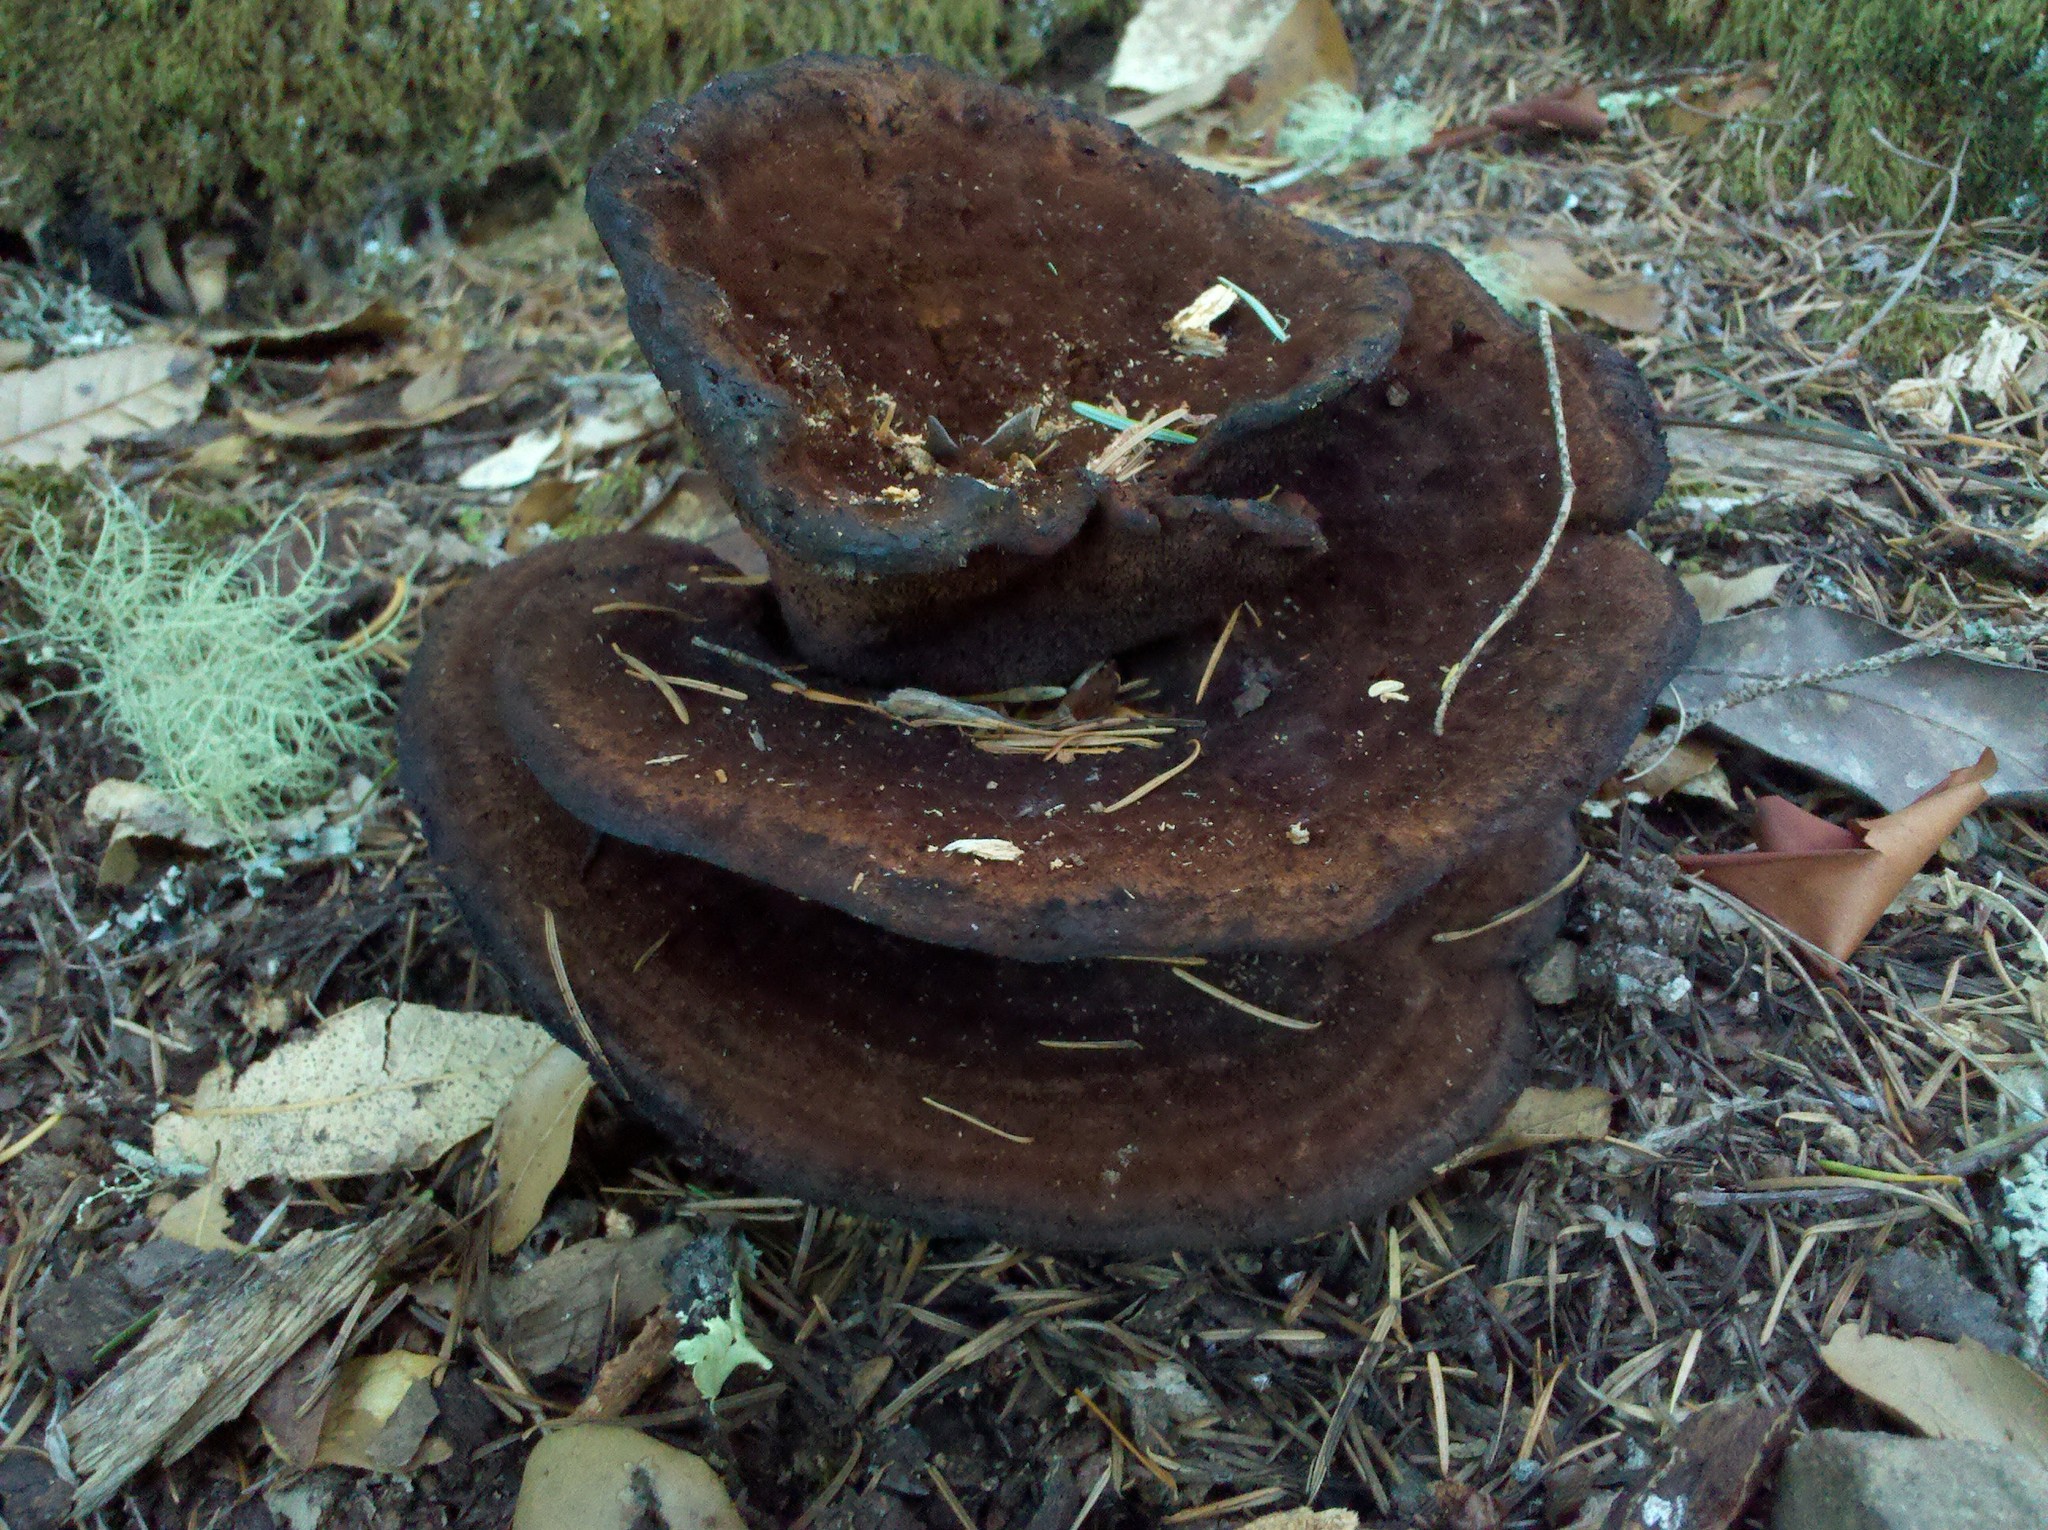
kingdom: Fungi
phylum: Basidiomycota
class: Agaricomycetes
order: Polyporales
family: Laetiporaceae
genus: Phaeolus
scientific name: Phaeolus schweinitzii
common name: Dyer's mazegill
